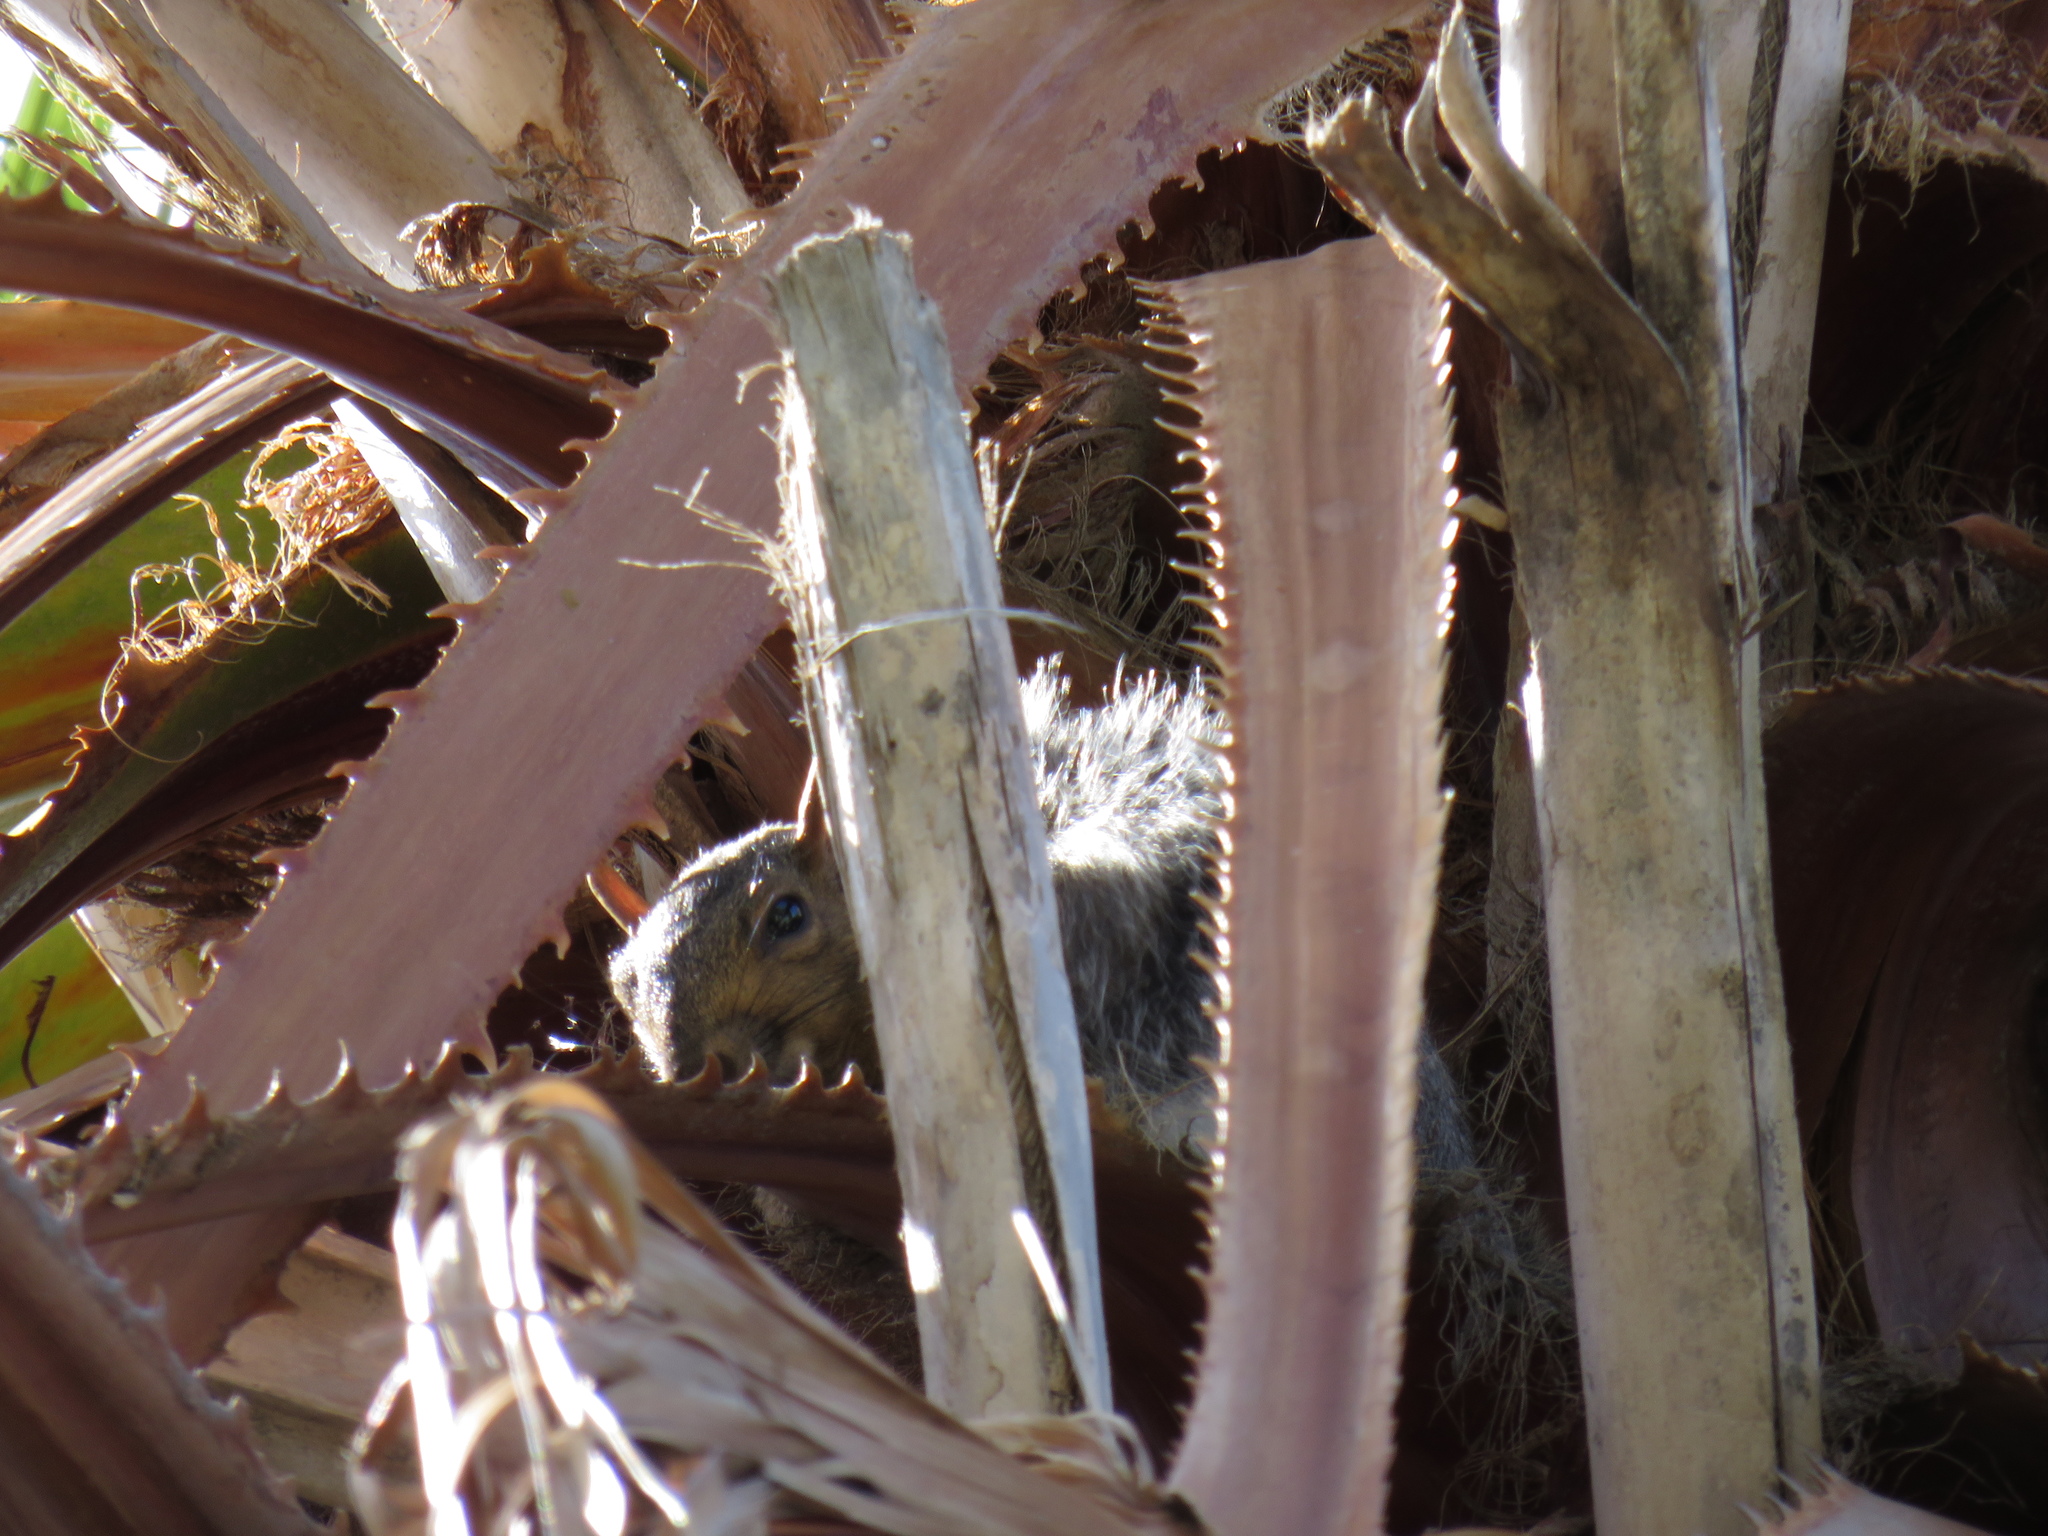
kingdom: Animalia
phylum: Chordata
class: Mammalia
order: Rodentia
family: Sciuridae
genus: Sciurus
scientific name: Sciurus carolinensis
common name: Eastern gray squirrel
